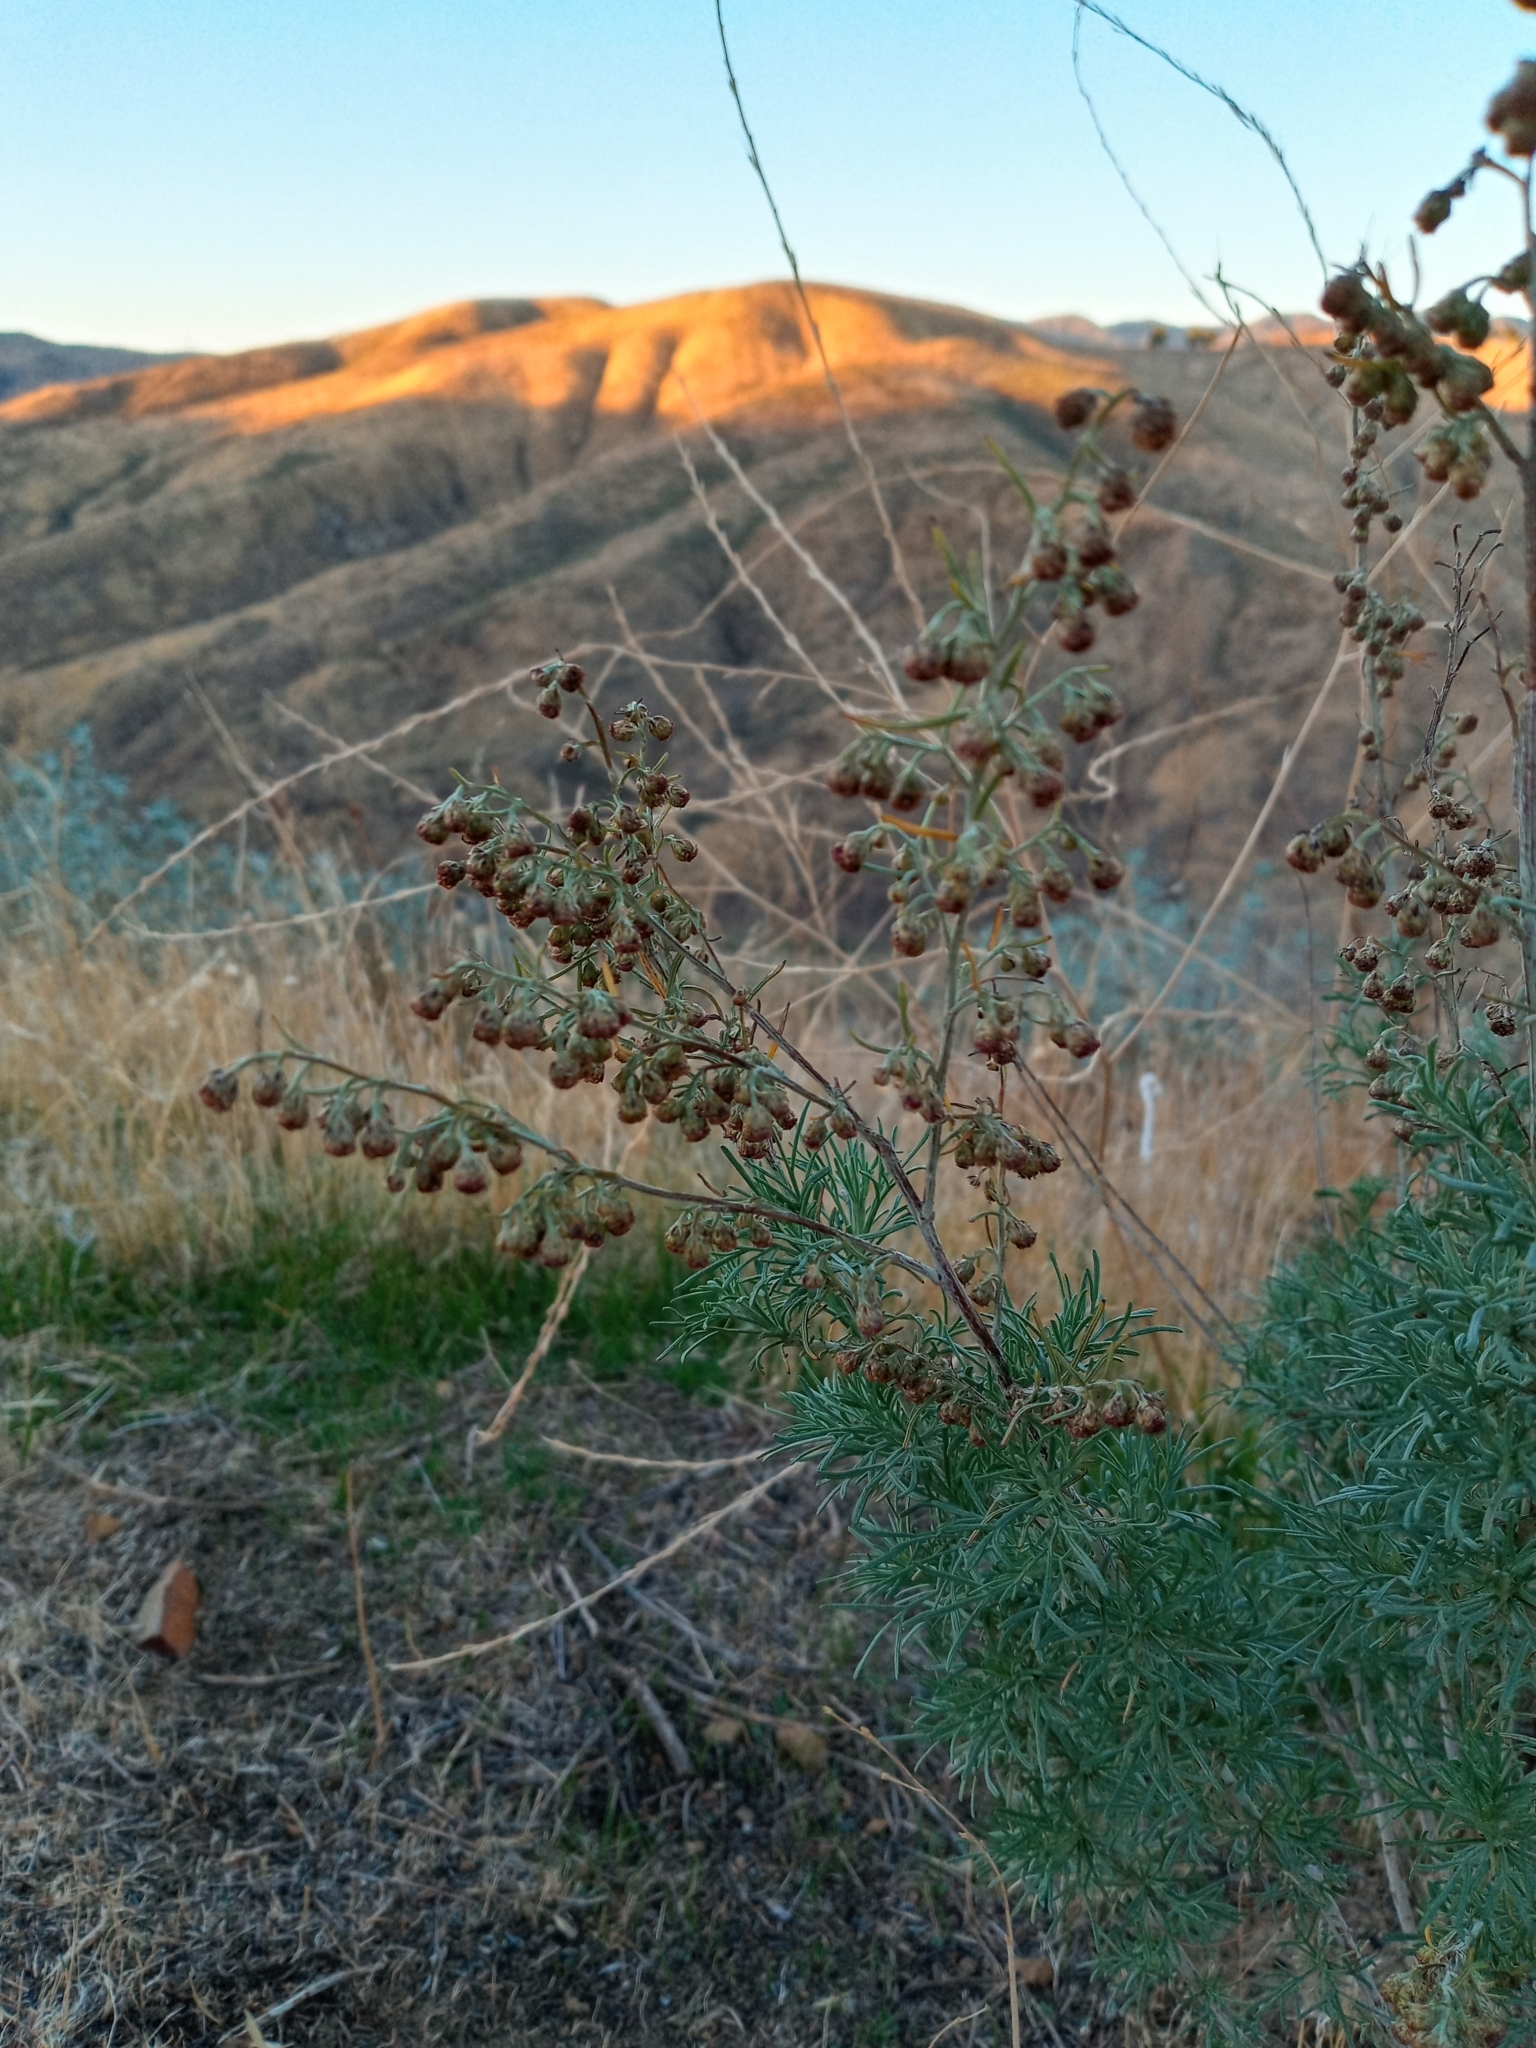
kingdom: Plantae
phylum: Tracheophyta
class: Magnoliopsida
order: Asterales
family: Asteraceae
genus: Artemisia
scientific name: Artemisia californica
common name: California sagebrush
